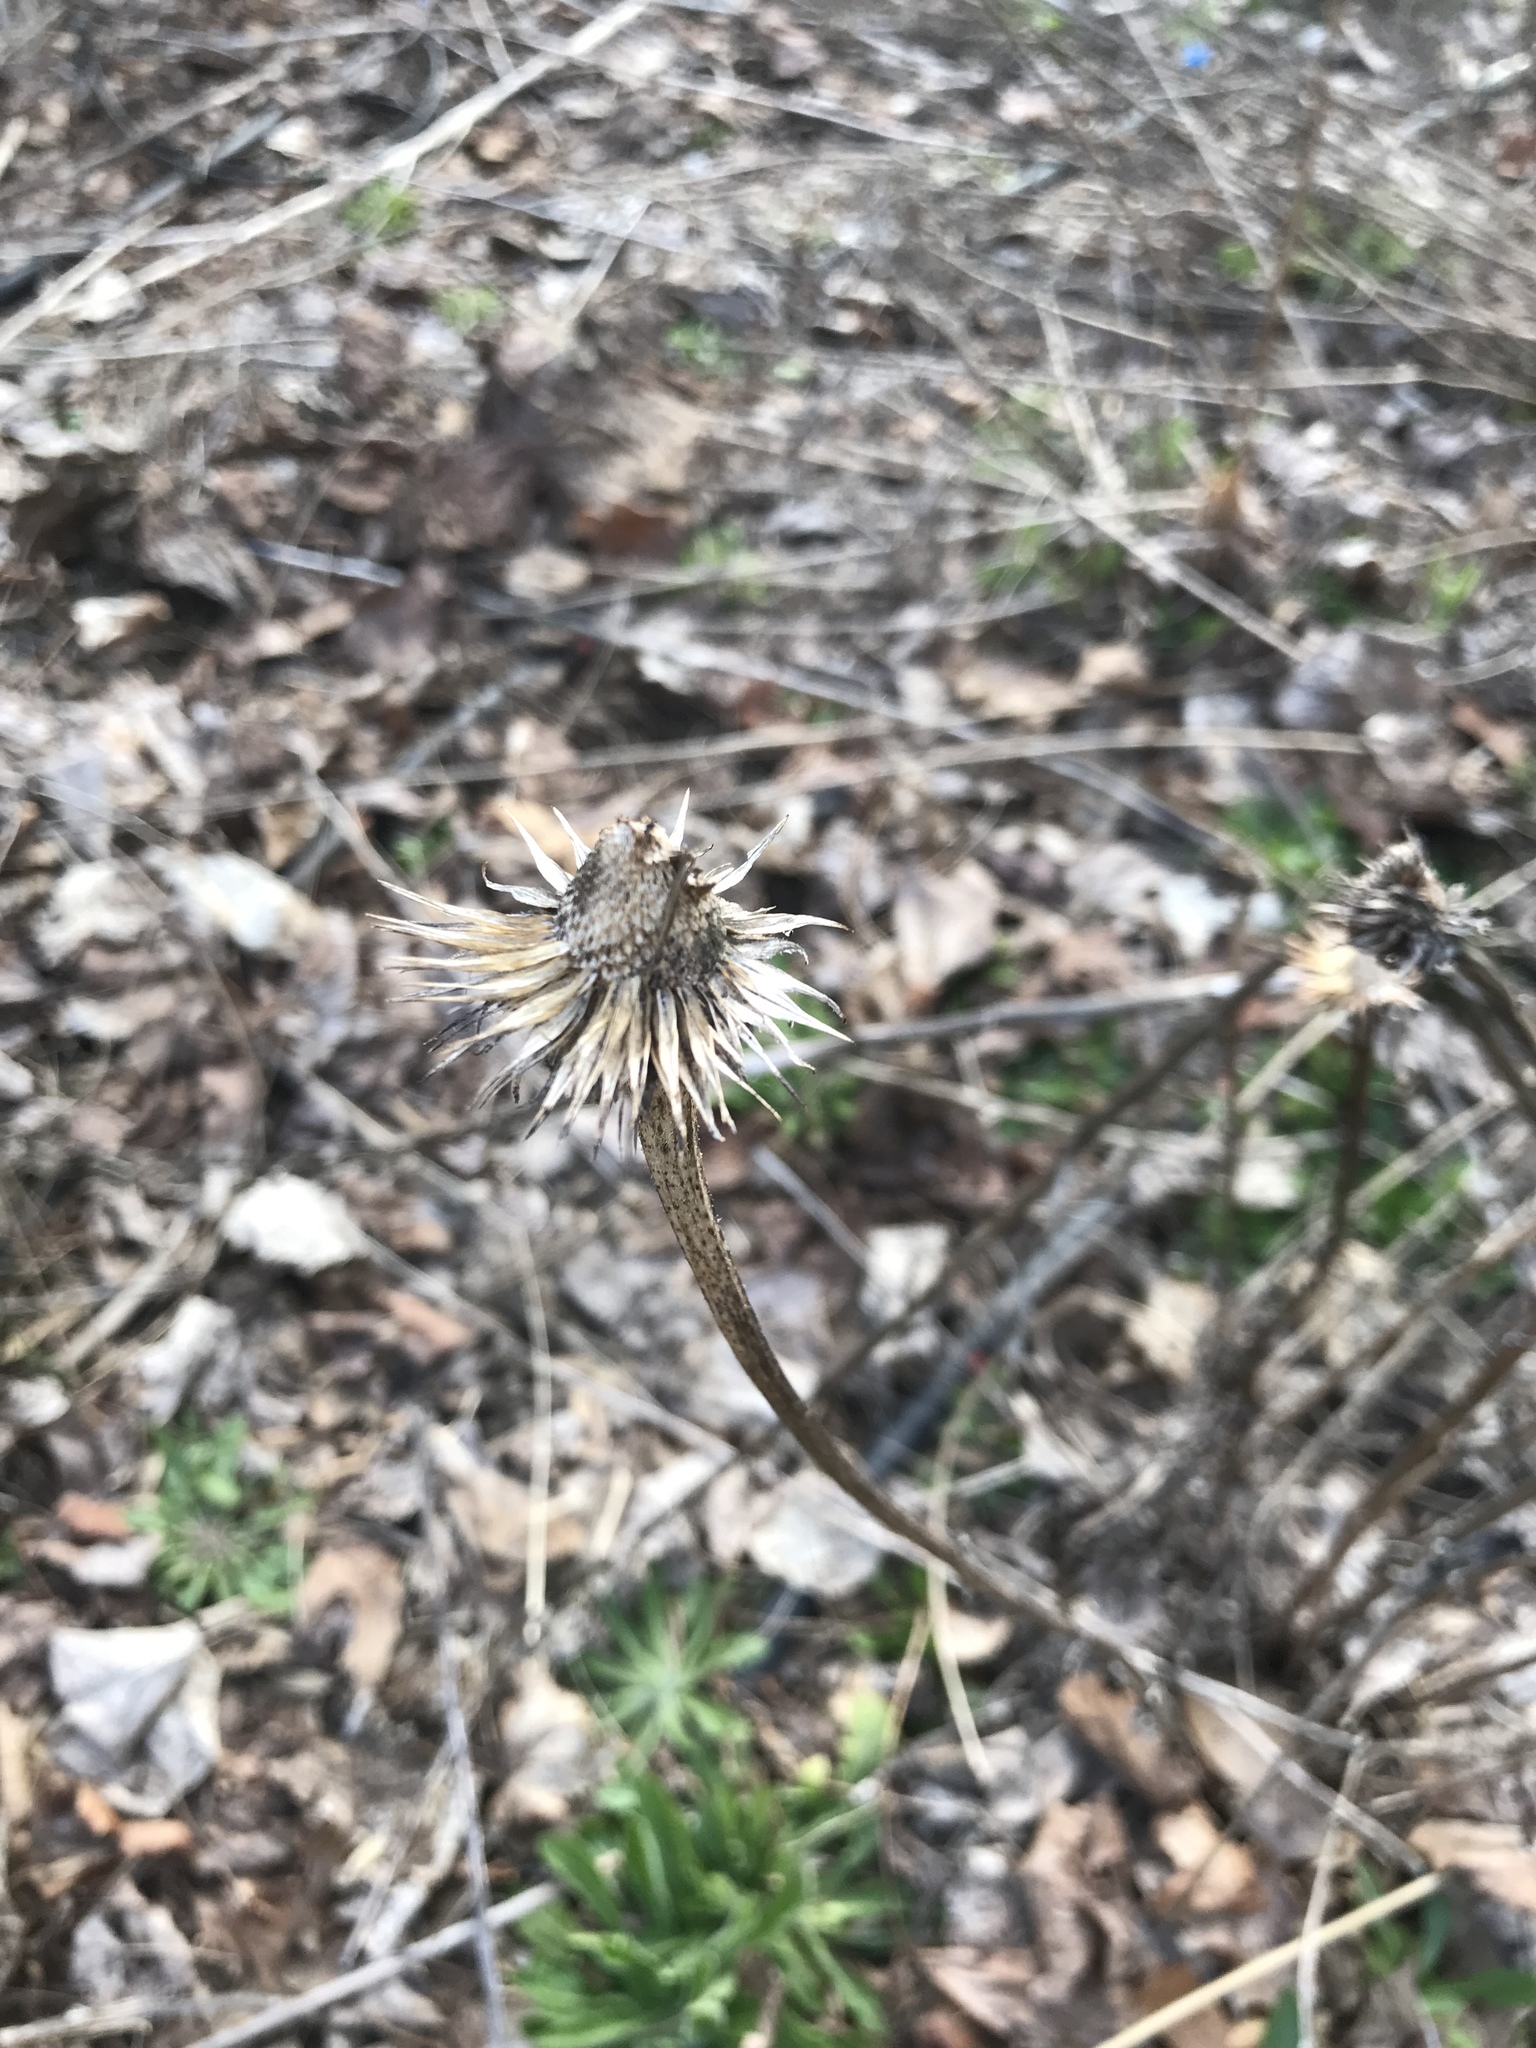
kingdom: Plantae
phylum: Tracheophyta
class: Magnoliopsida
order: Asterales
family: Asteraceae
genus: Echinacea
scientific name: Echinacea purpurea
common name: Broad-leaved purple coneflower
